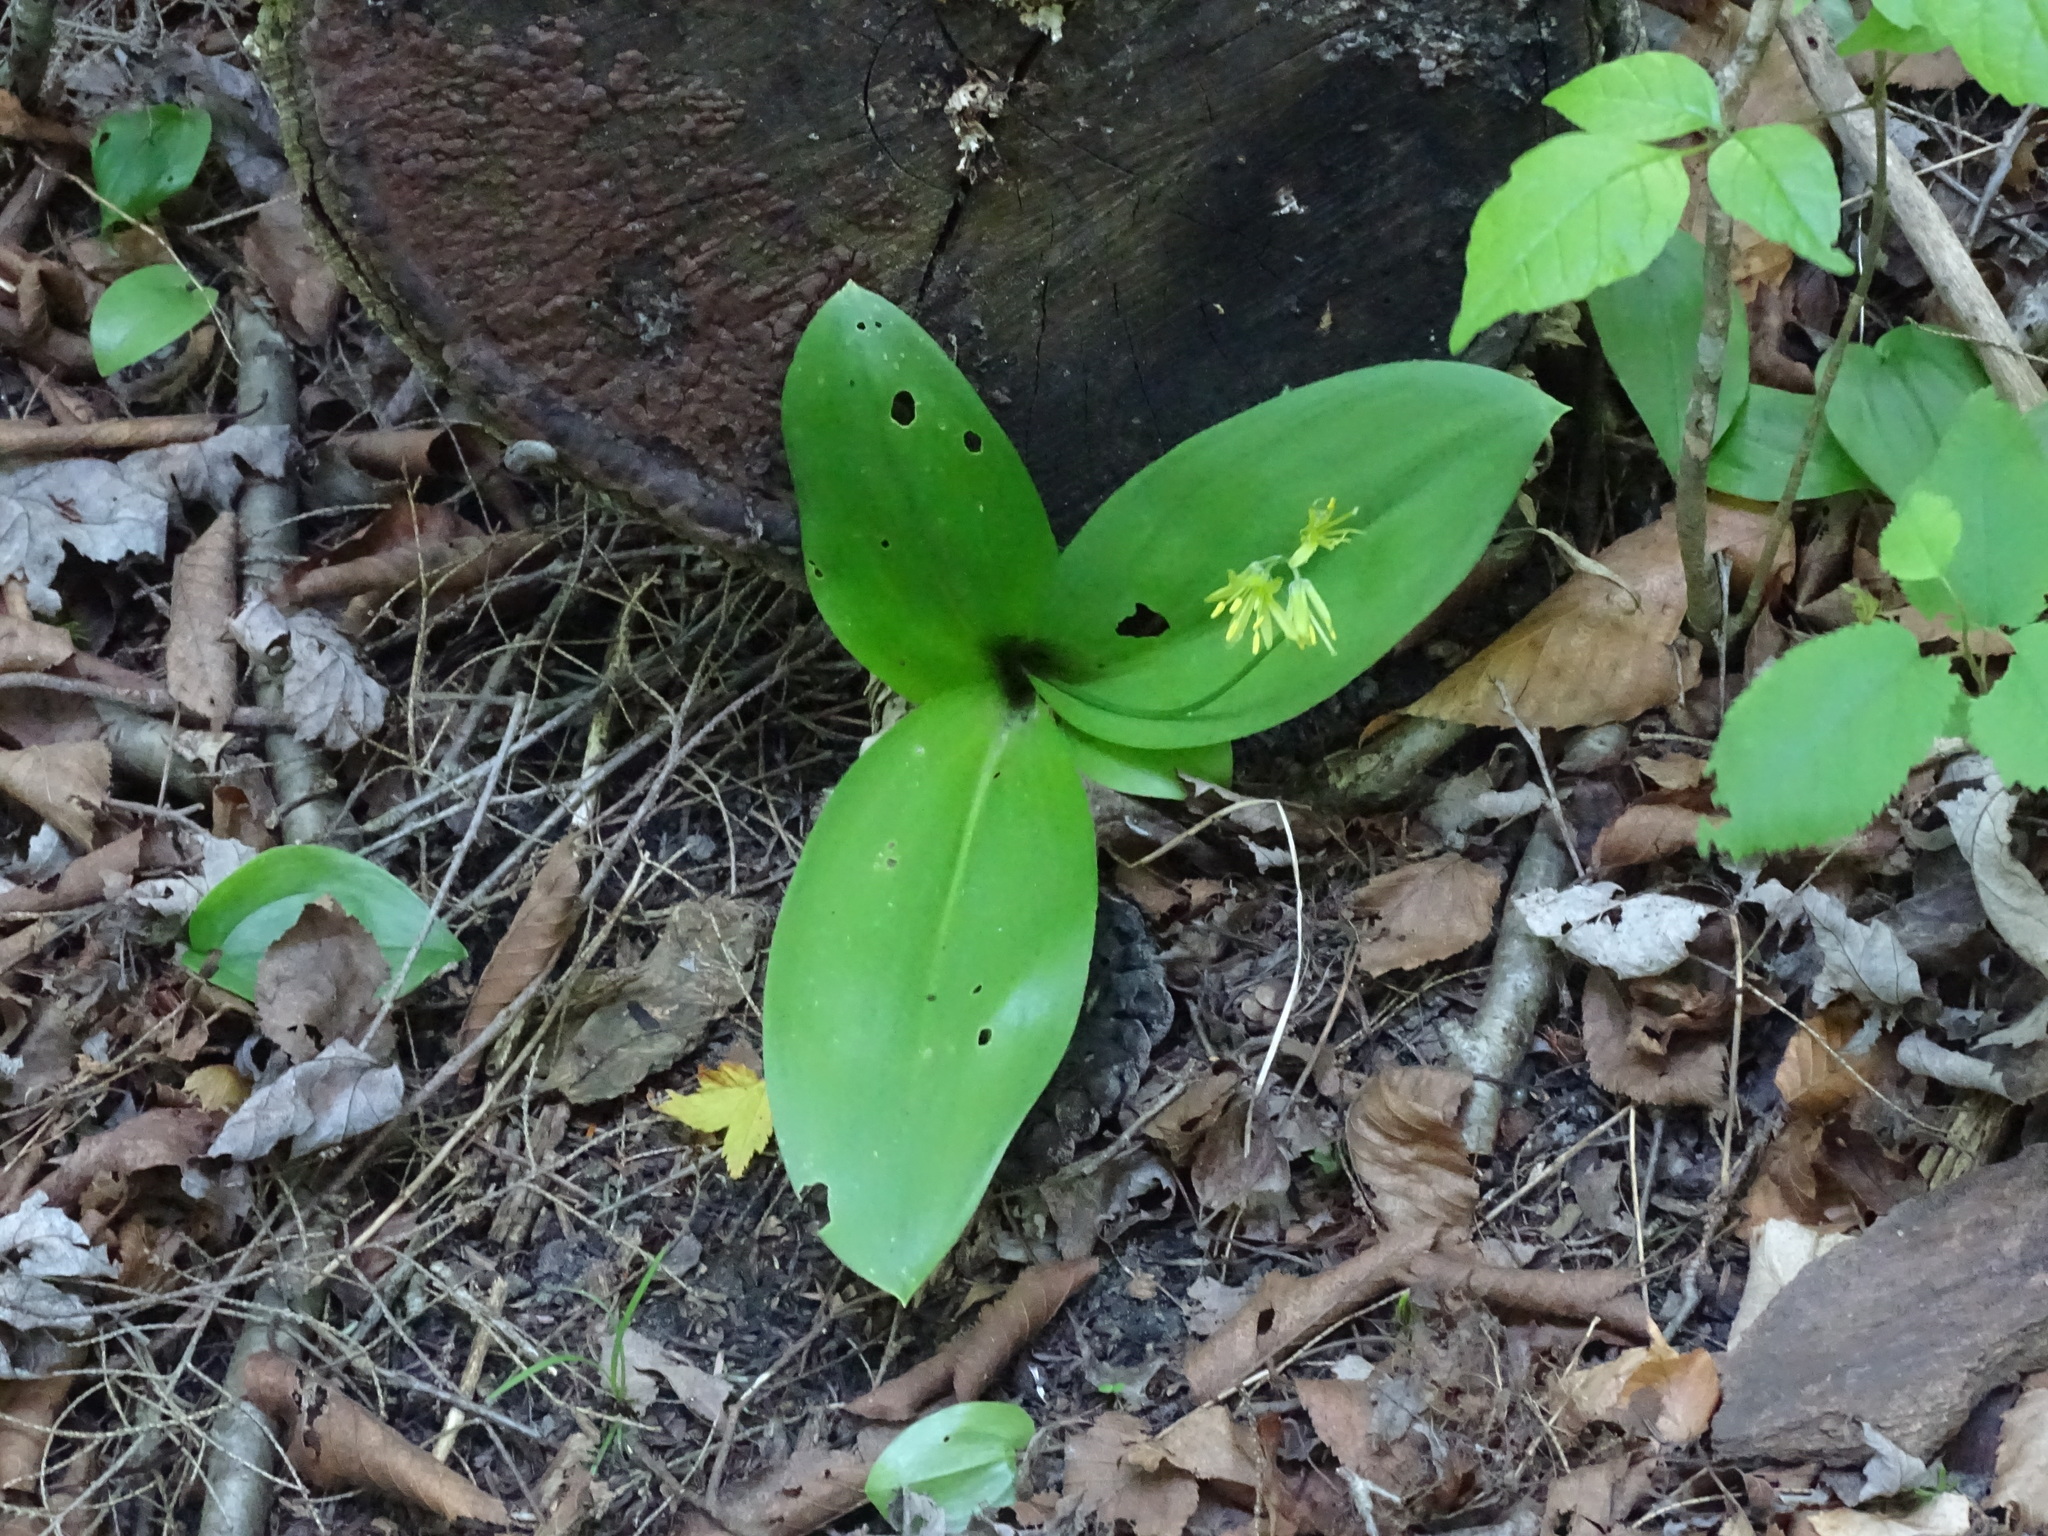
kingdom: Plantae
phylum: Tracheophyta
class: Liliopsida
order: Liliales
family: Liliaceae
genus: Clintonia
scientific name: Clintonia borealis
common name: Yellow clintonia
